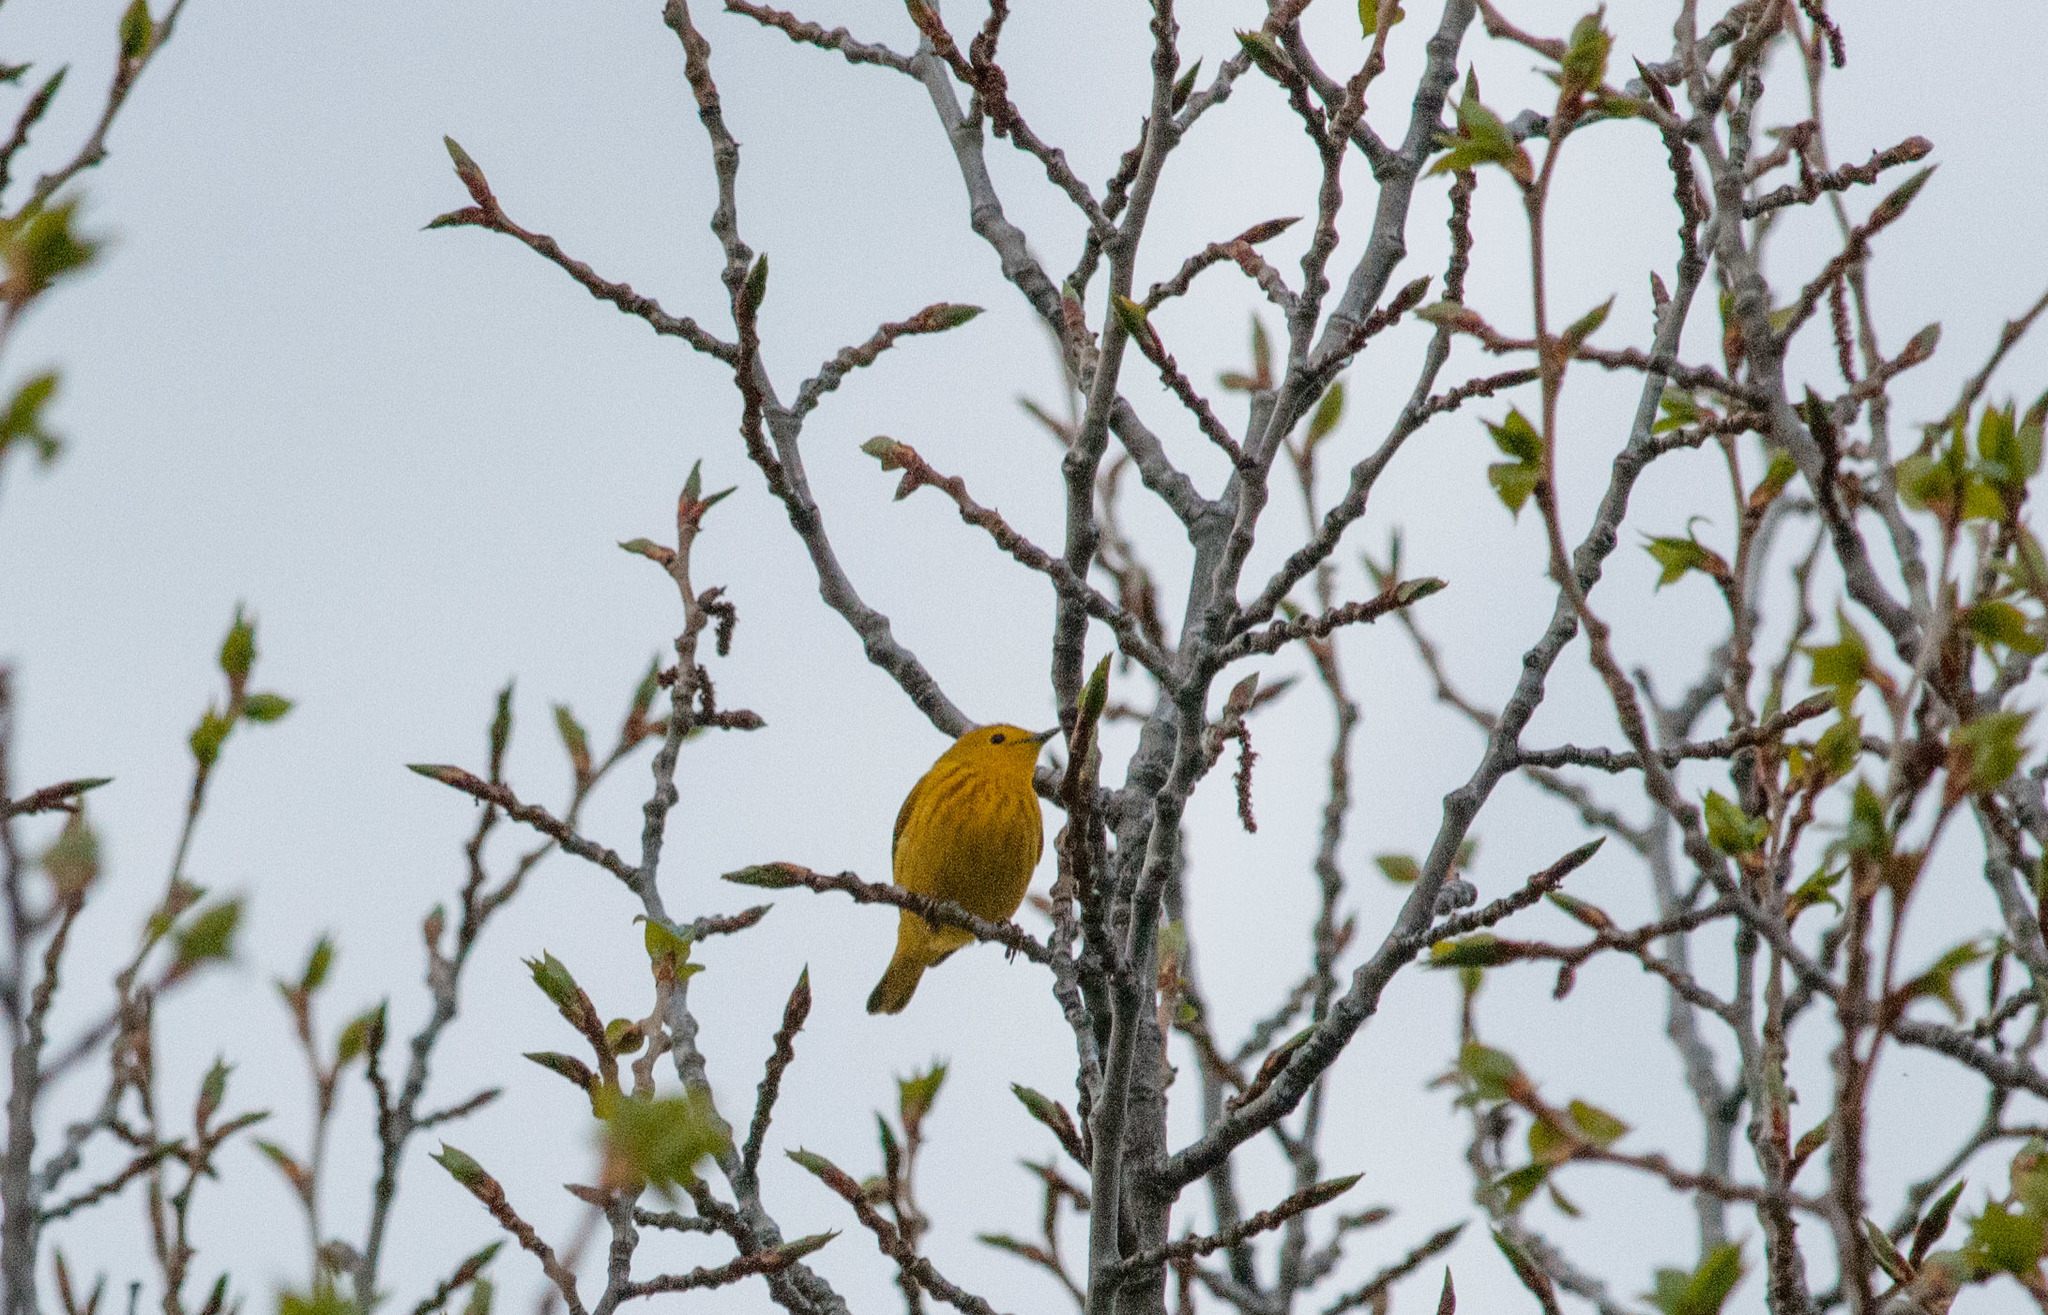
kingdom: Animalia
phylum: Chordata
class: Aves
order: Passeriformes
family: Parulidae
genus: Setophaga
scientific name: Setophaga petechia
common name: Yellow warbler
